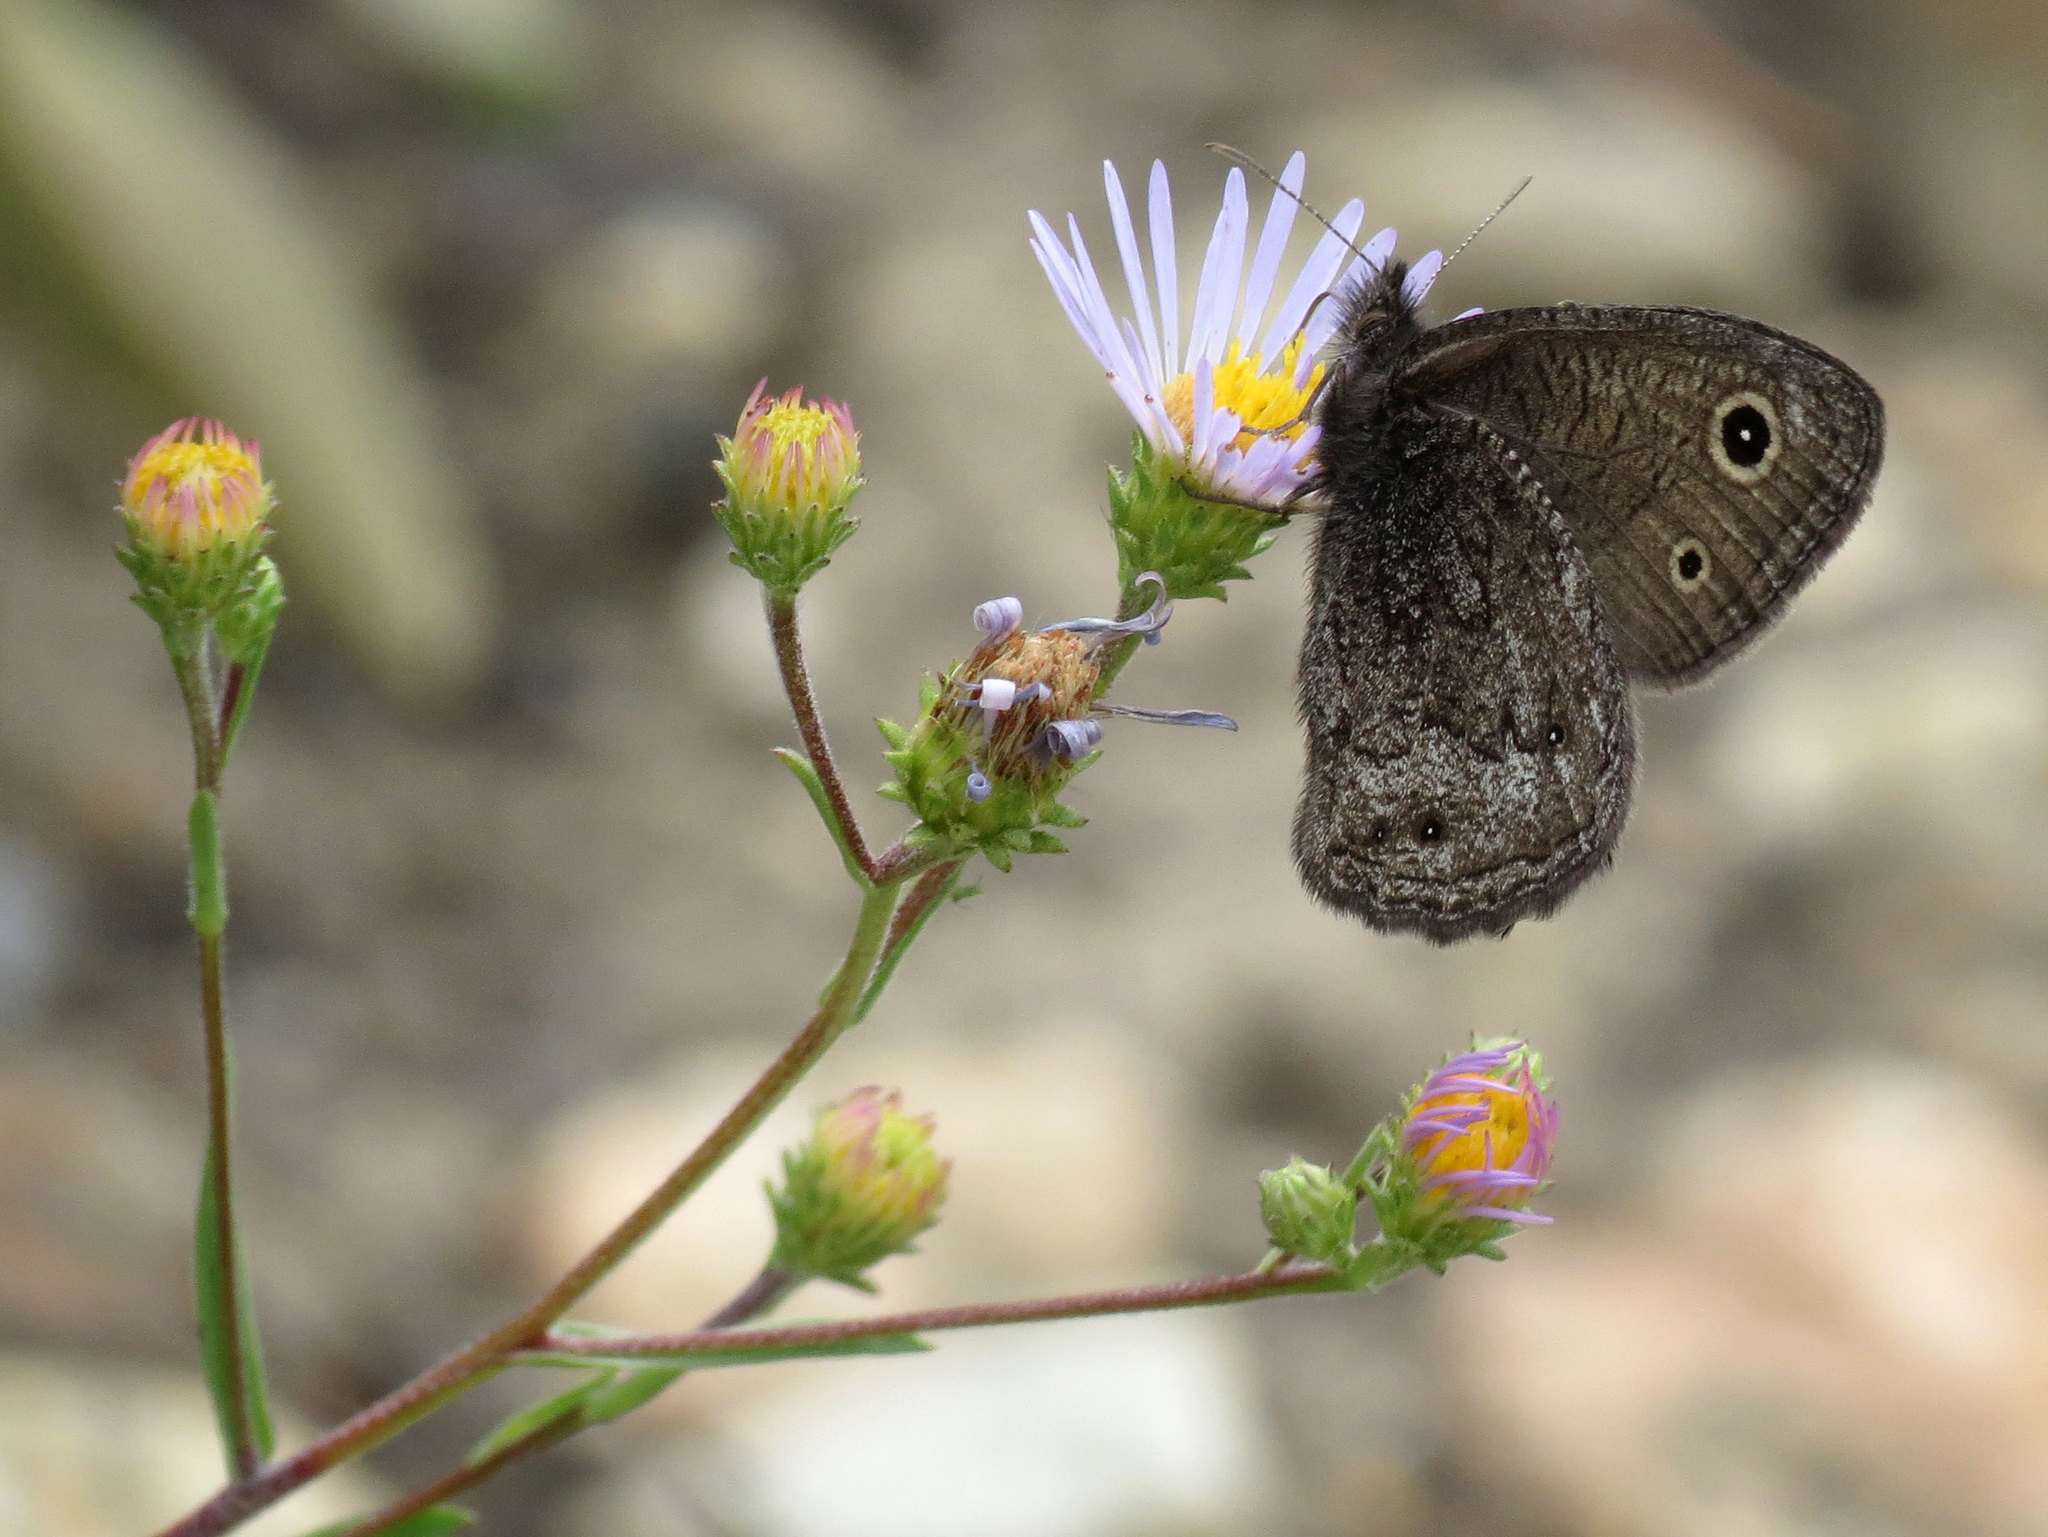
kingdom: Animalia
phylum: Arthropoda
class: Insecta
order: Lepidoptera
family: Nymphalidae
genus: Cercyonis
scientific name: Cercyonis oetus
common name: Small wood-nymph
